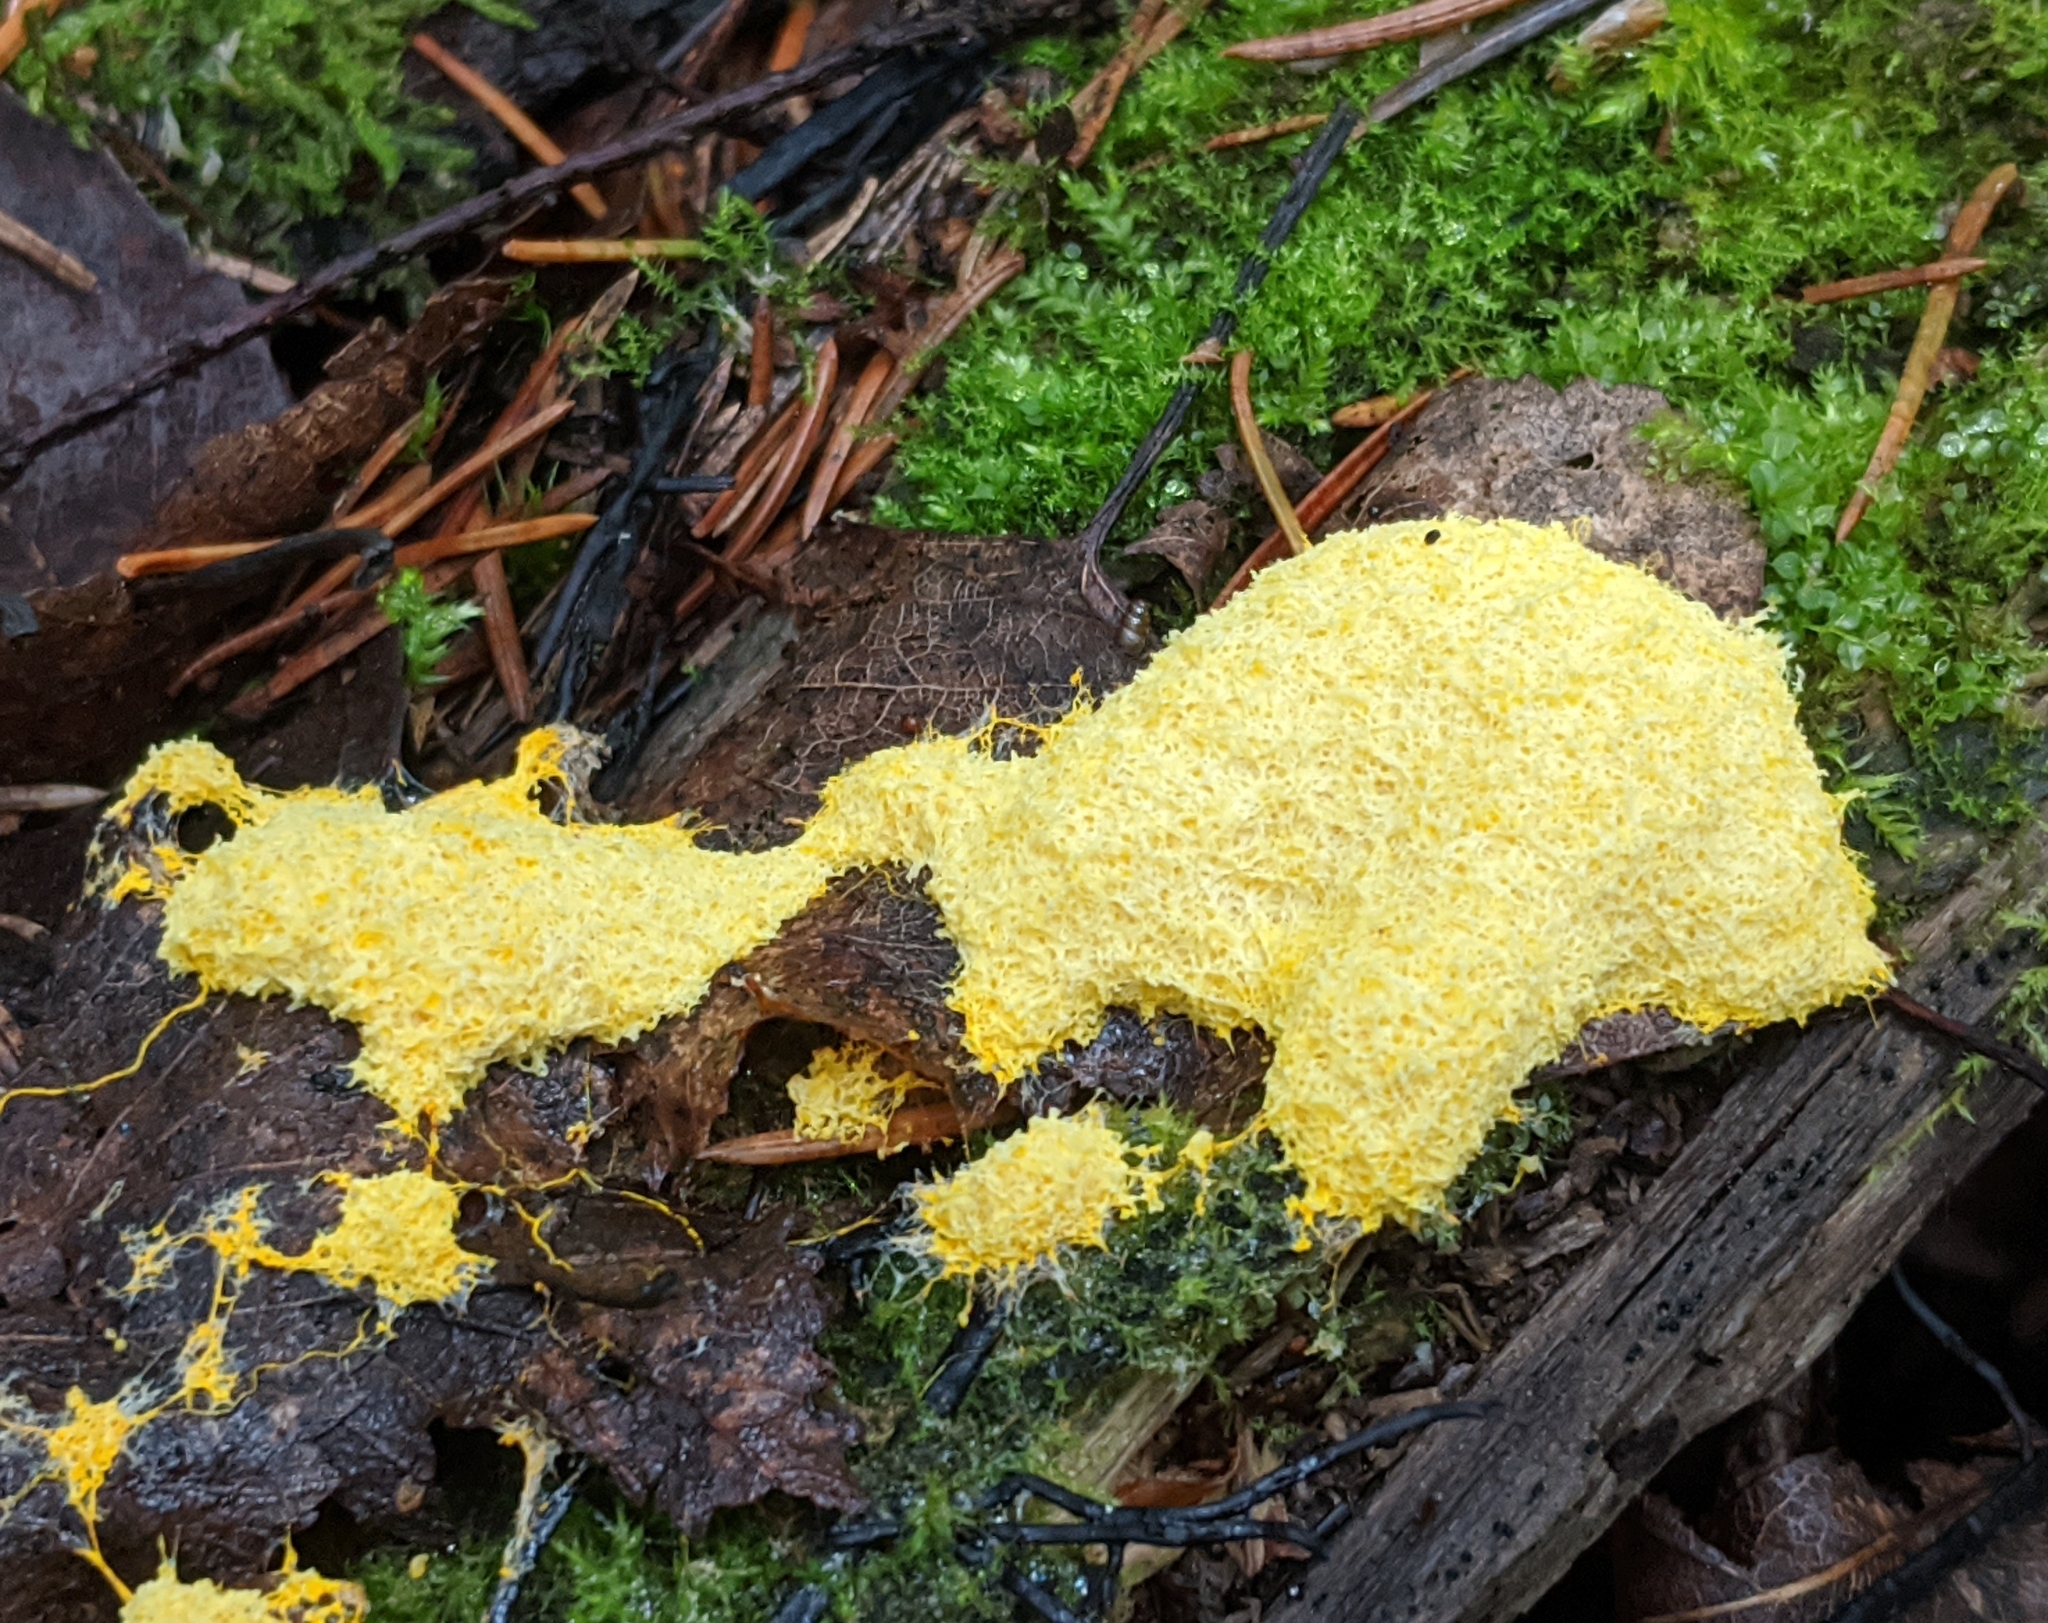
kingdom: Protozoa
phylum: Mycetozoa
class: Myxomycetes
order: Physarales
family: Physaraceae
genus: Fuligo
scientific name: Fuligo septica
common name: Dog vomit slime mold
